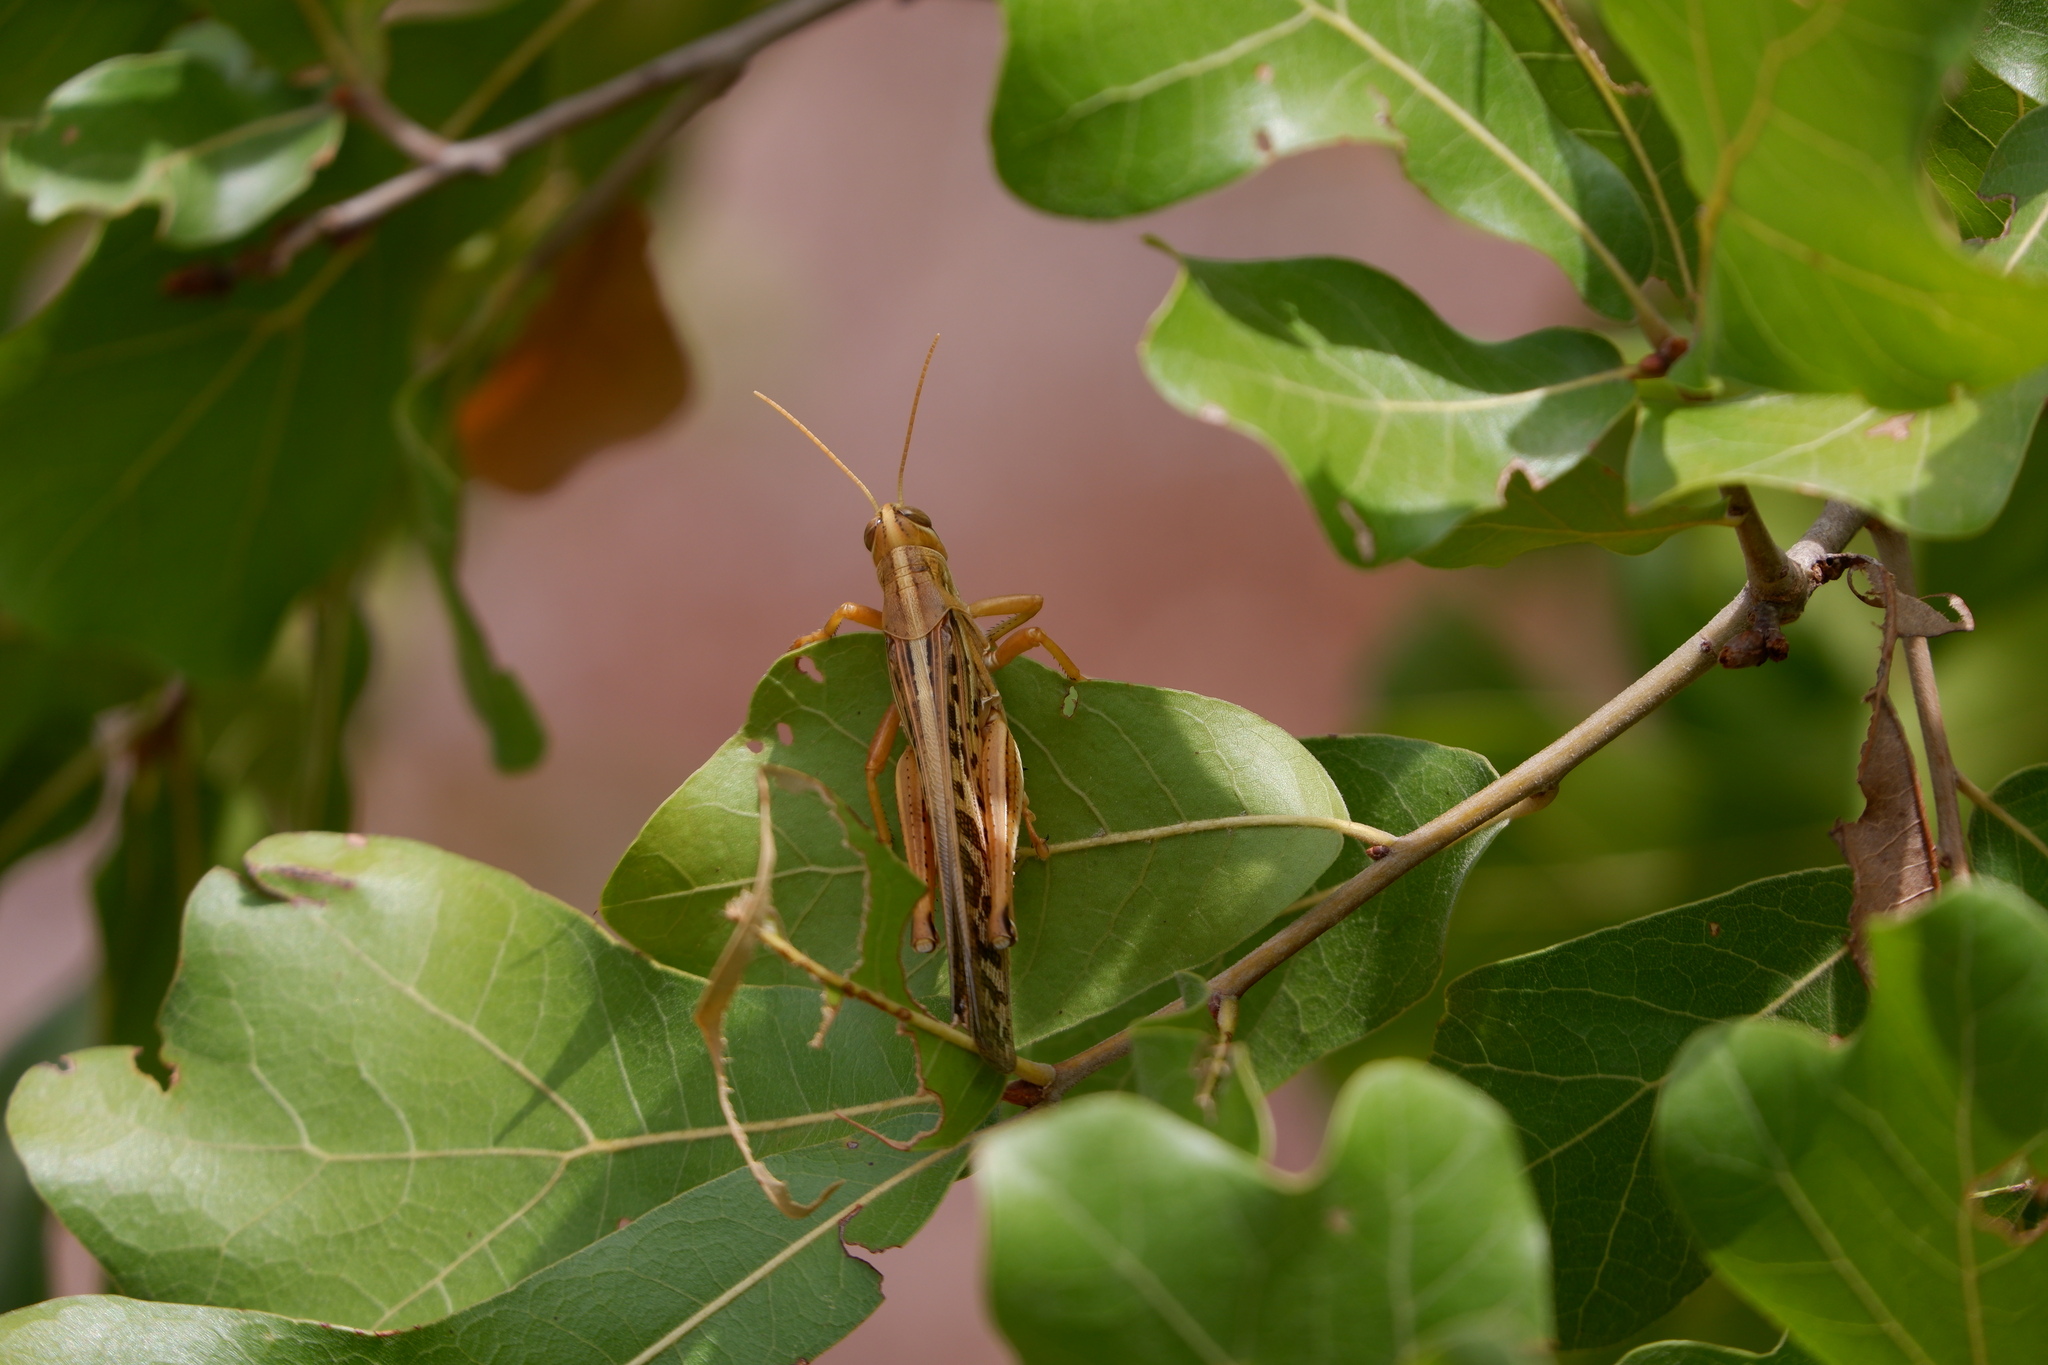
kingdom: Animalia
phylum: Arthropoda
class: Insecta
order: Orthoptera
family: Acrididae
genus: Schistocerca
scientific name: Schistocerca americana
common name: American bird locust
